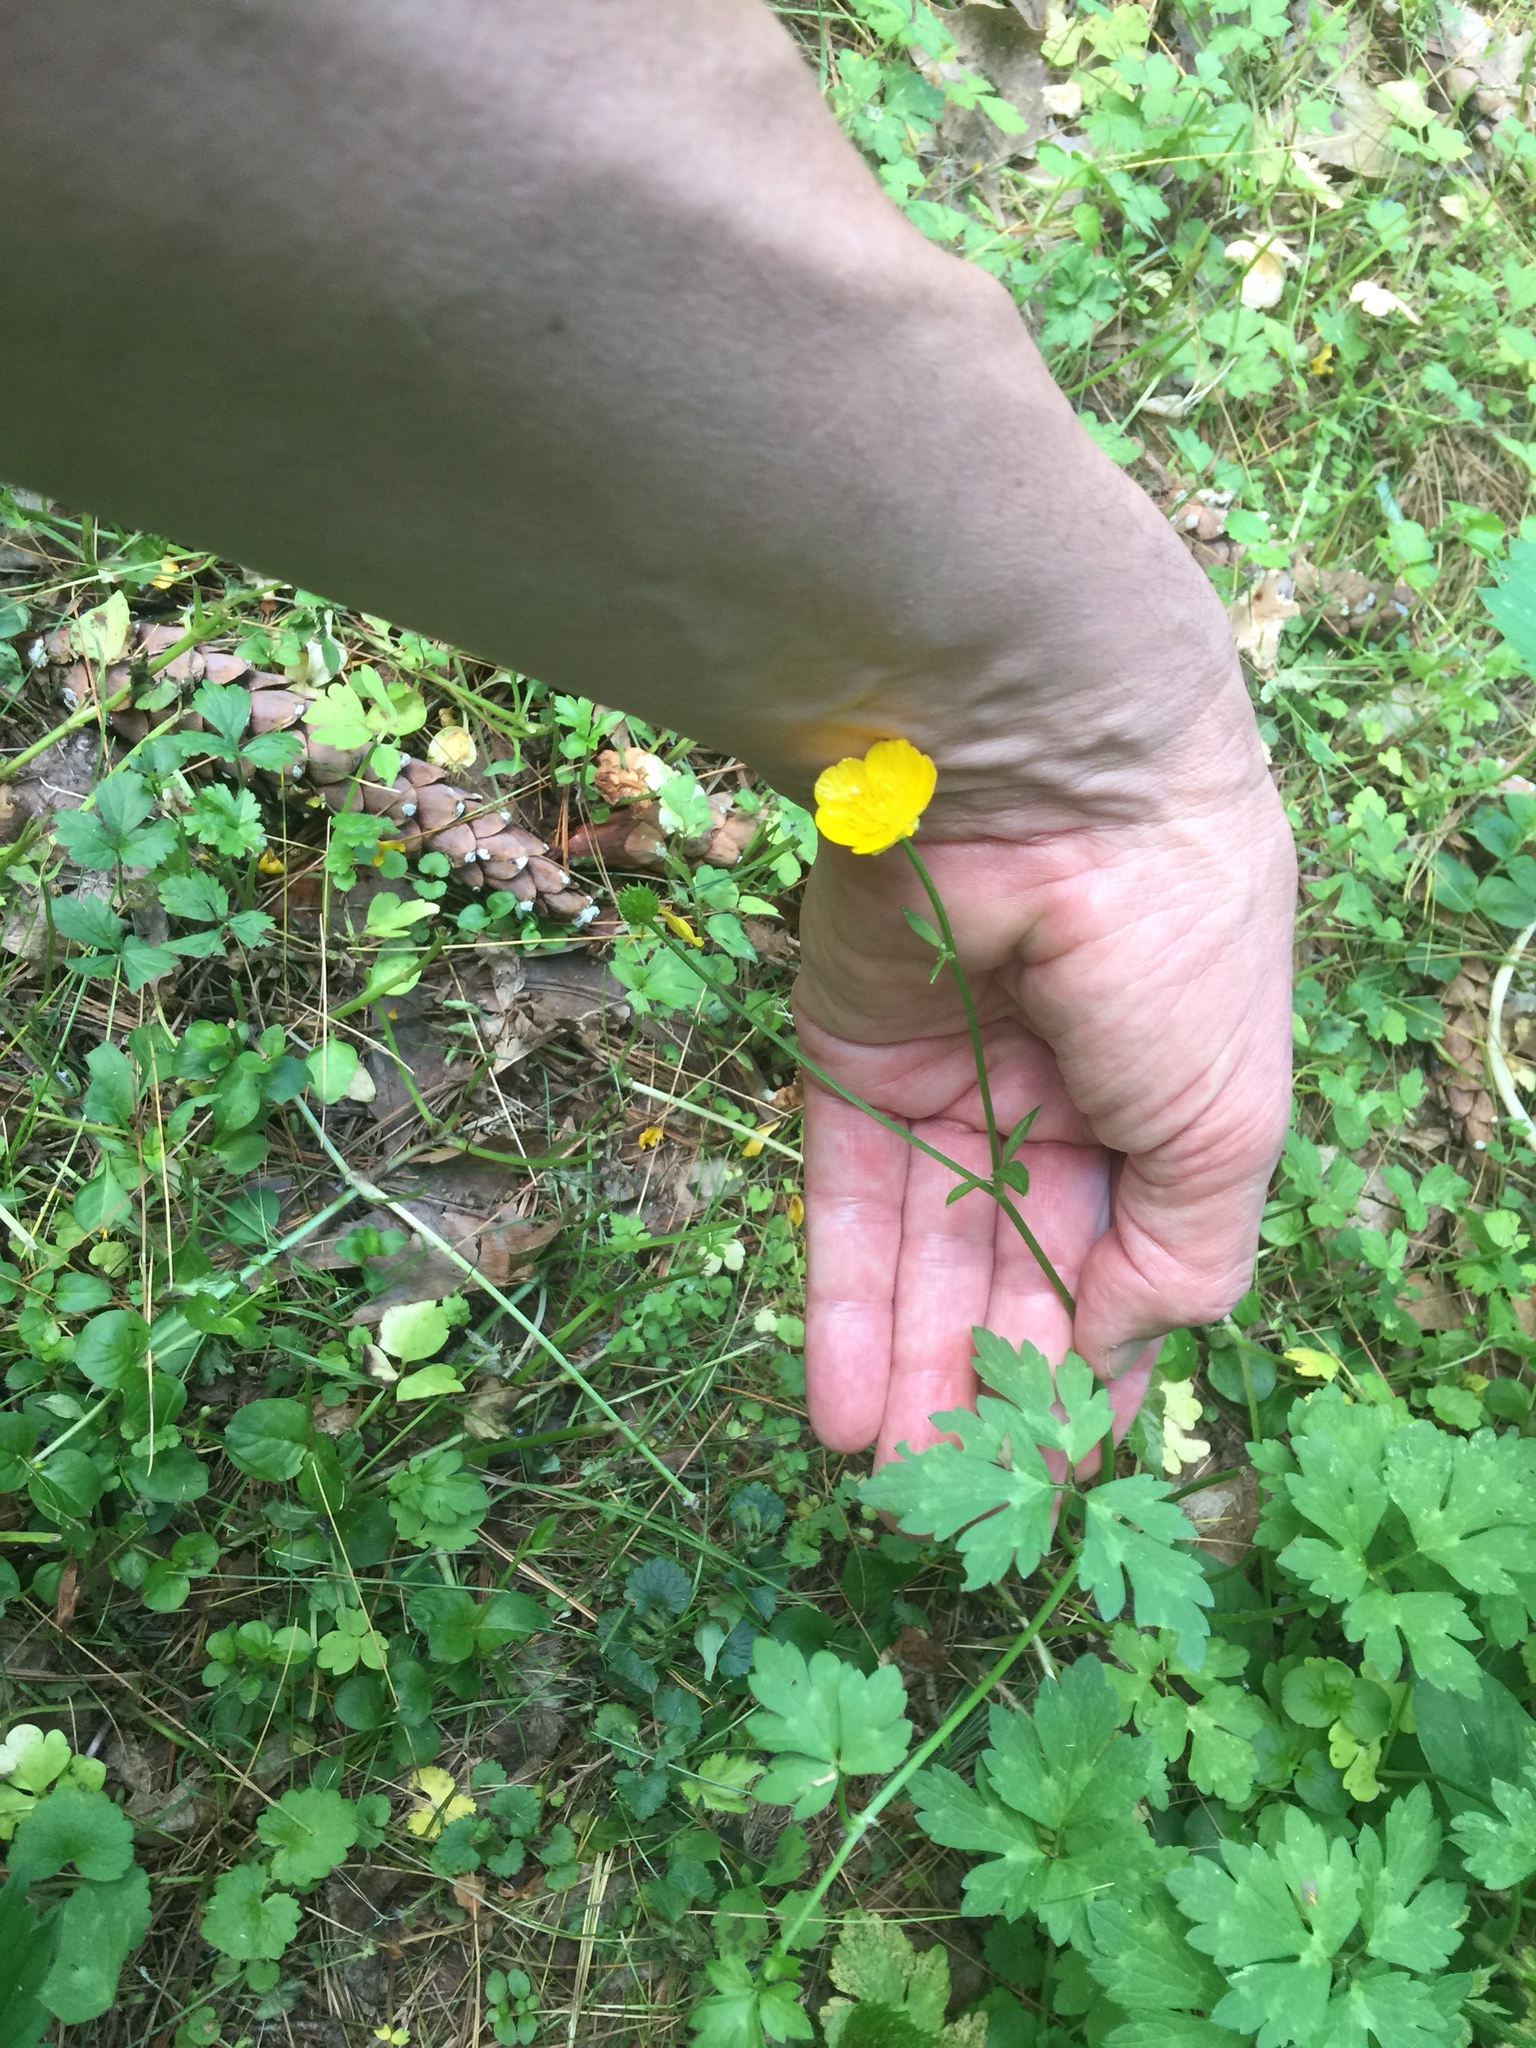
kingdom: Plantae
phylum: Tracheophyta
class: Magnoliopsida
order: Ranunculales
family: Ranunculaceae
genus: Ranunculus
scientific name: Ranunculus repens
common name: Creeping buttercup
